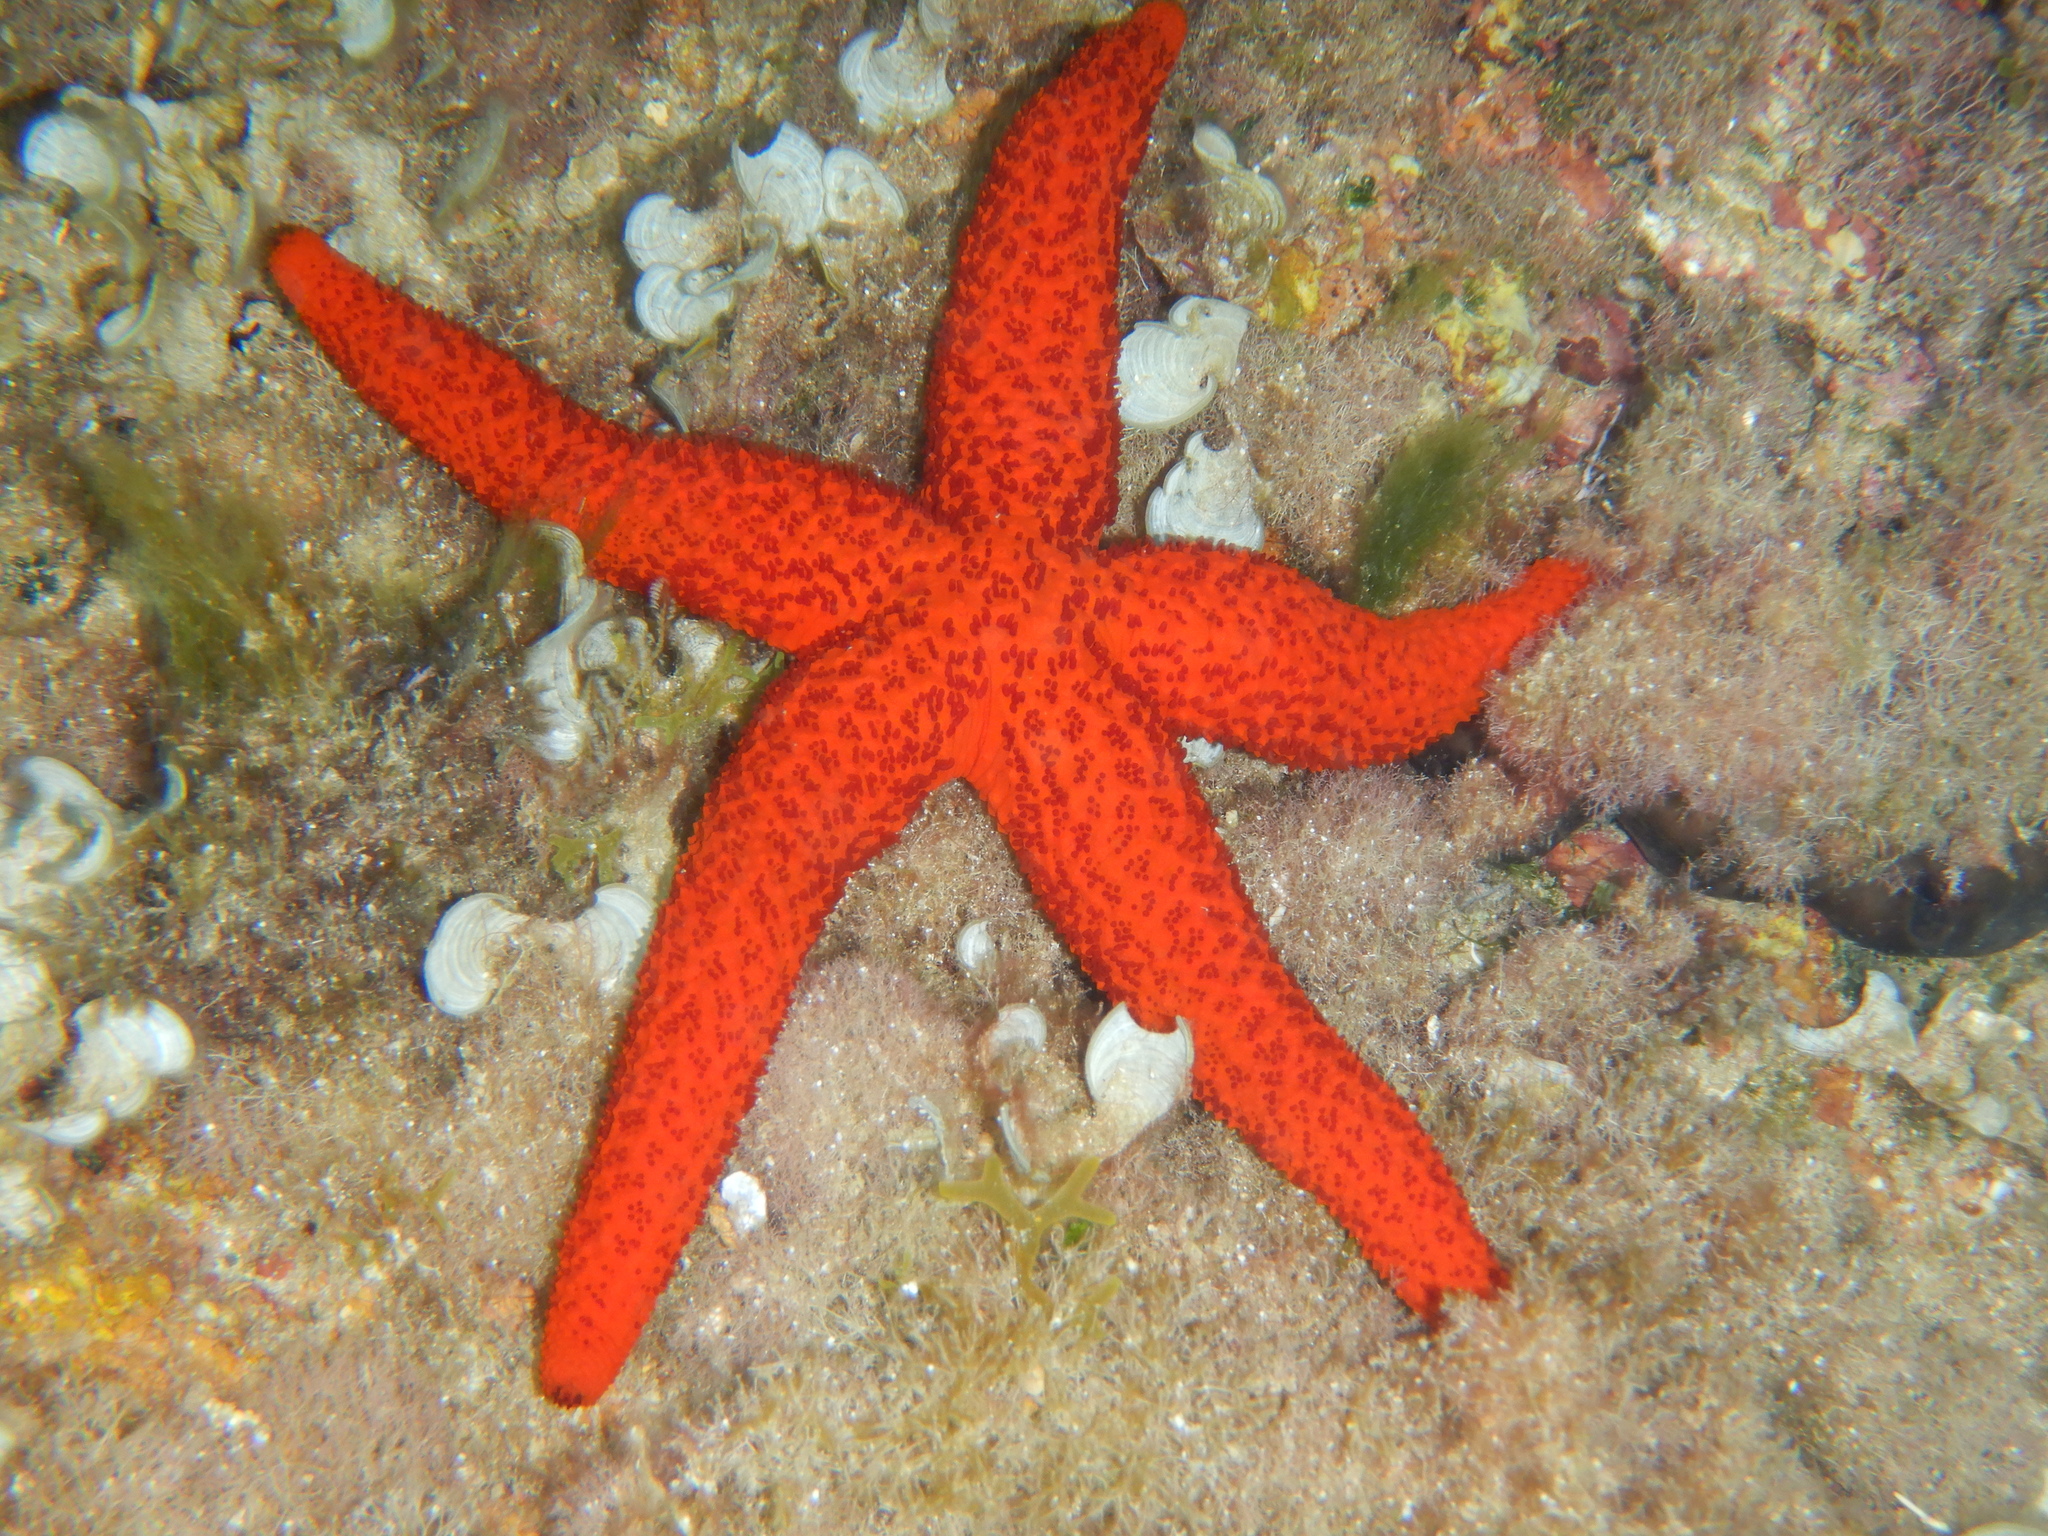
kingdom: Animalia
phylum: Echinodermata
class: Asteroidea
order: Spinulosida
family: Echinasteridae
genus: Echinaster
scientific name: Echinaster sepositus
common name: Red starfish
